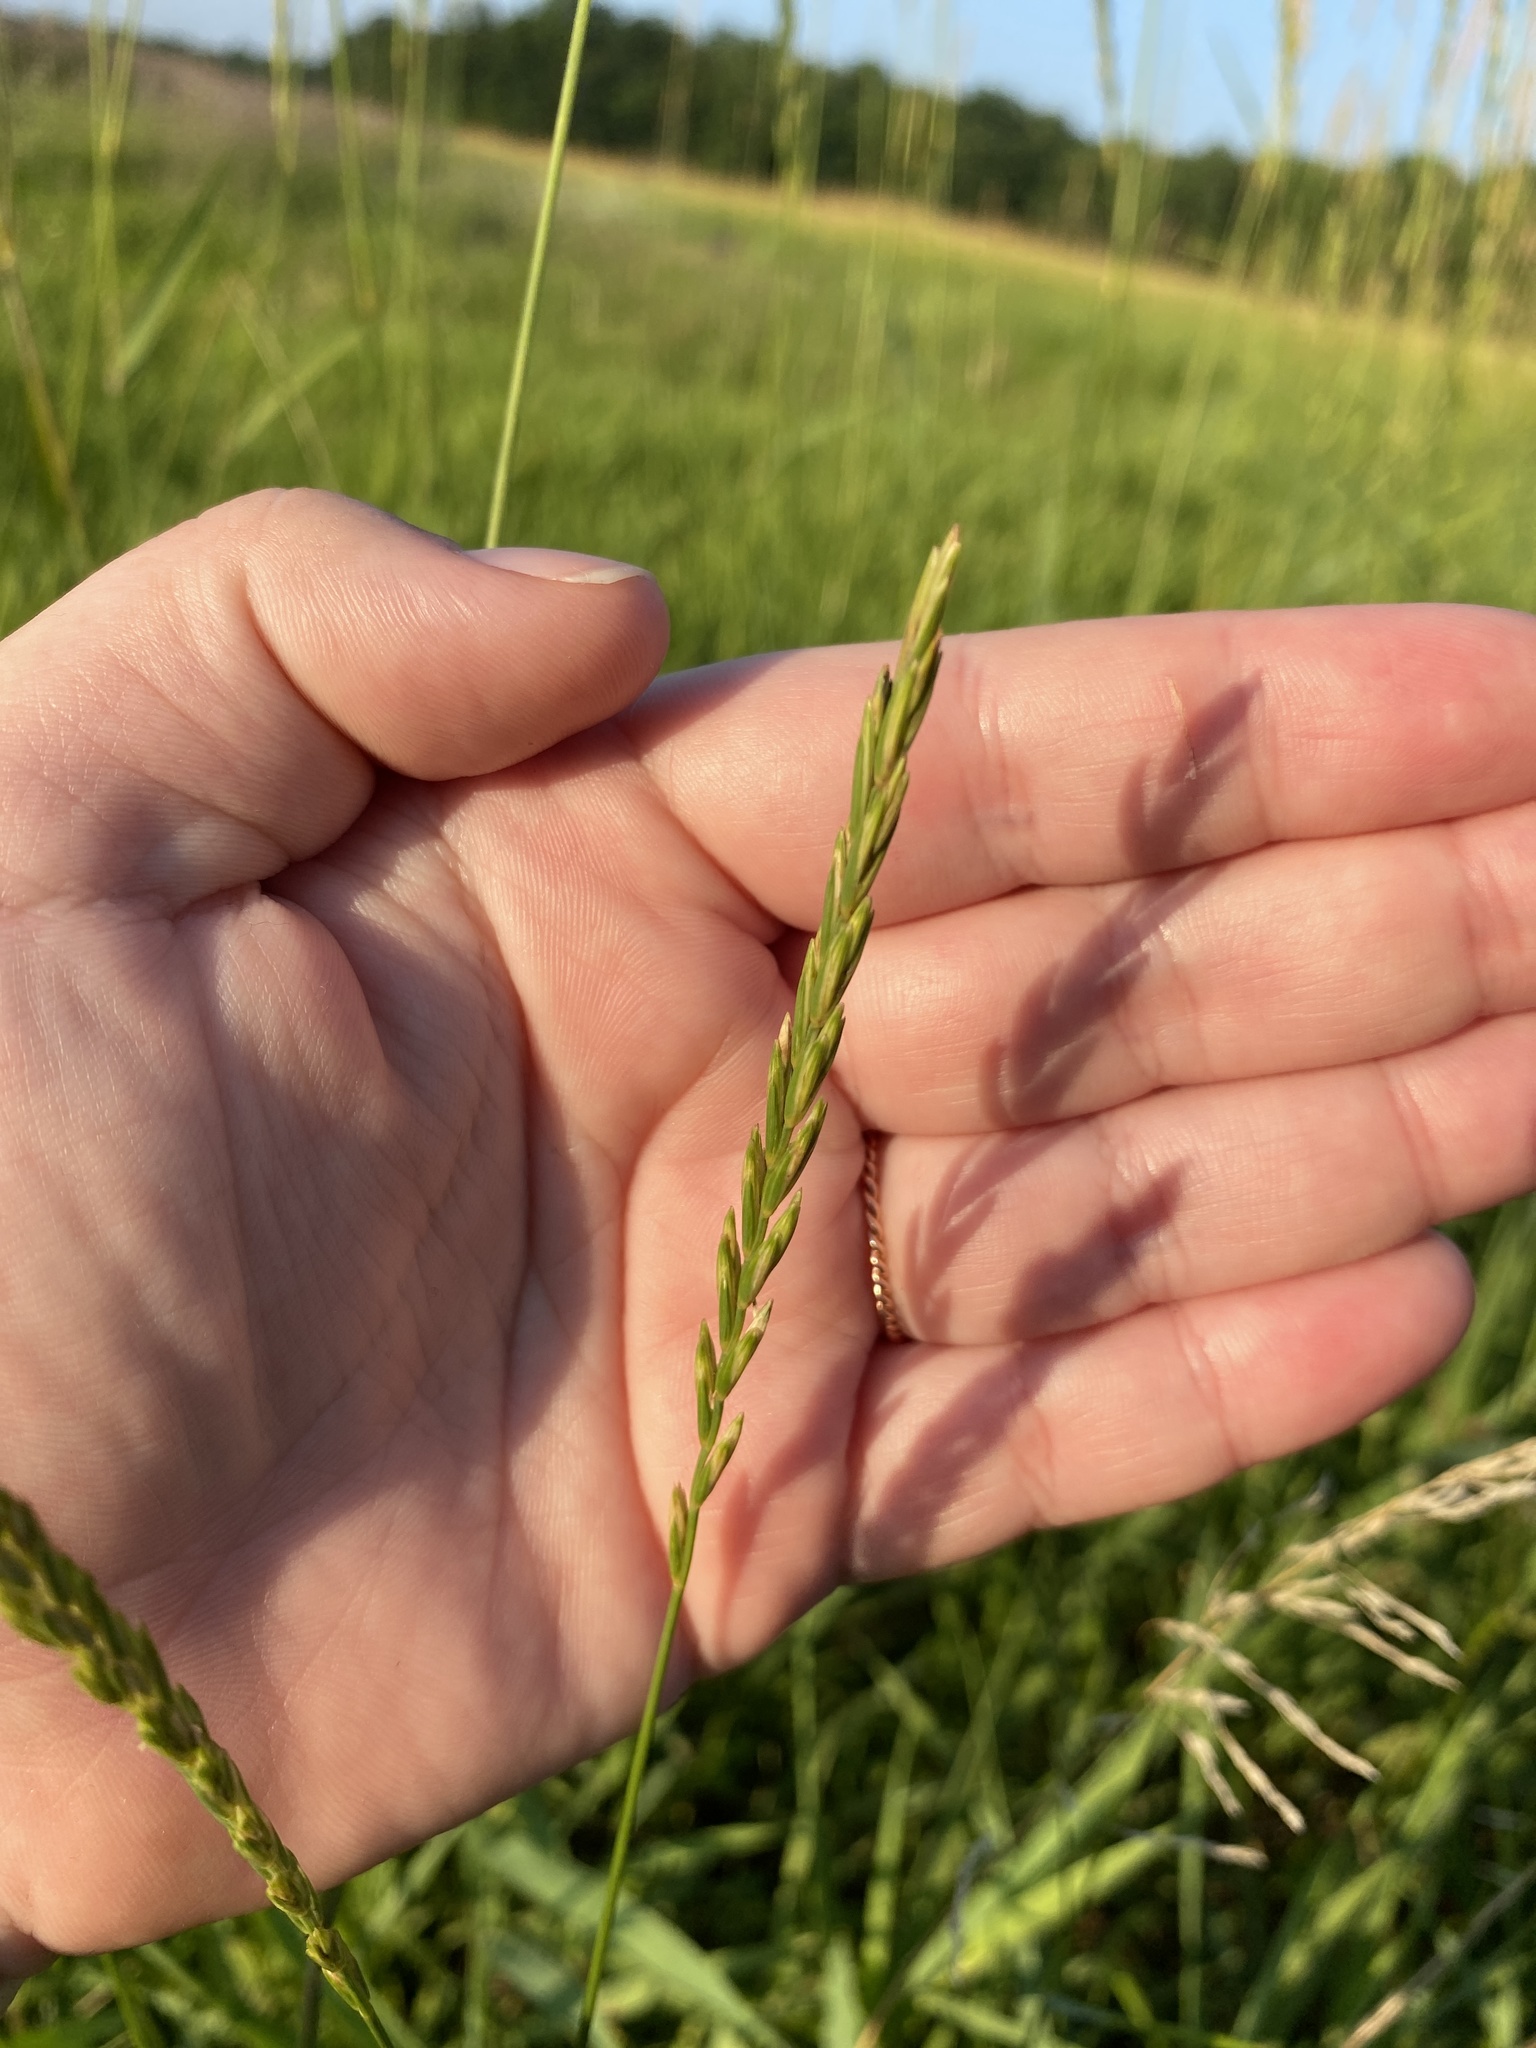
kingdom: Plantae
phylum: Tracheophyta
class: Liliopsida
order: Poales
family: Poaceae
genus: Elymus
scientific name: Elymus repens
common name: Quackgrass
